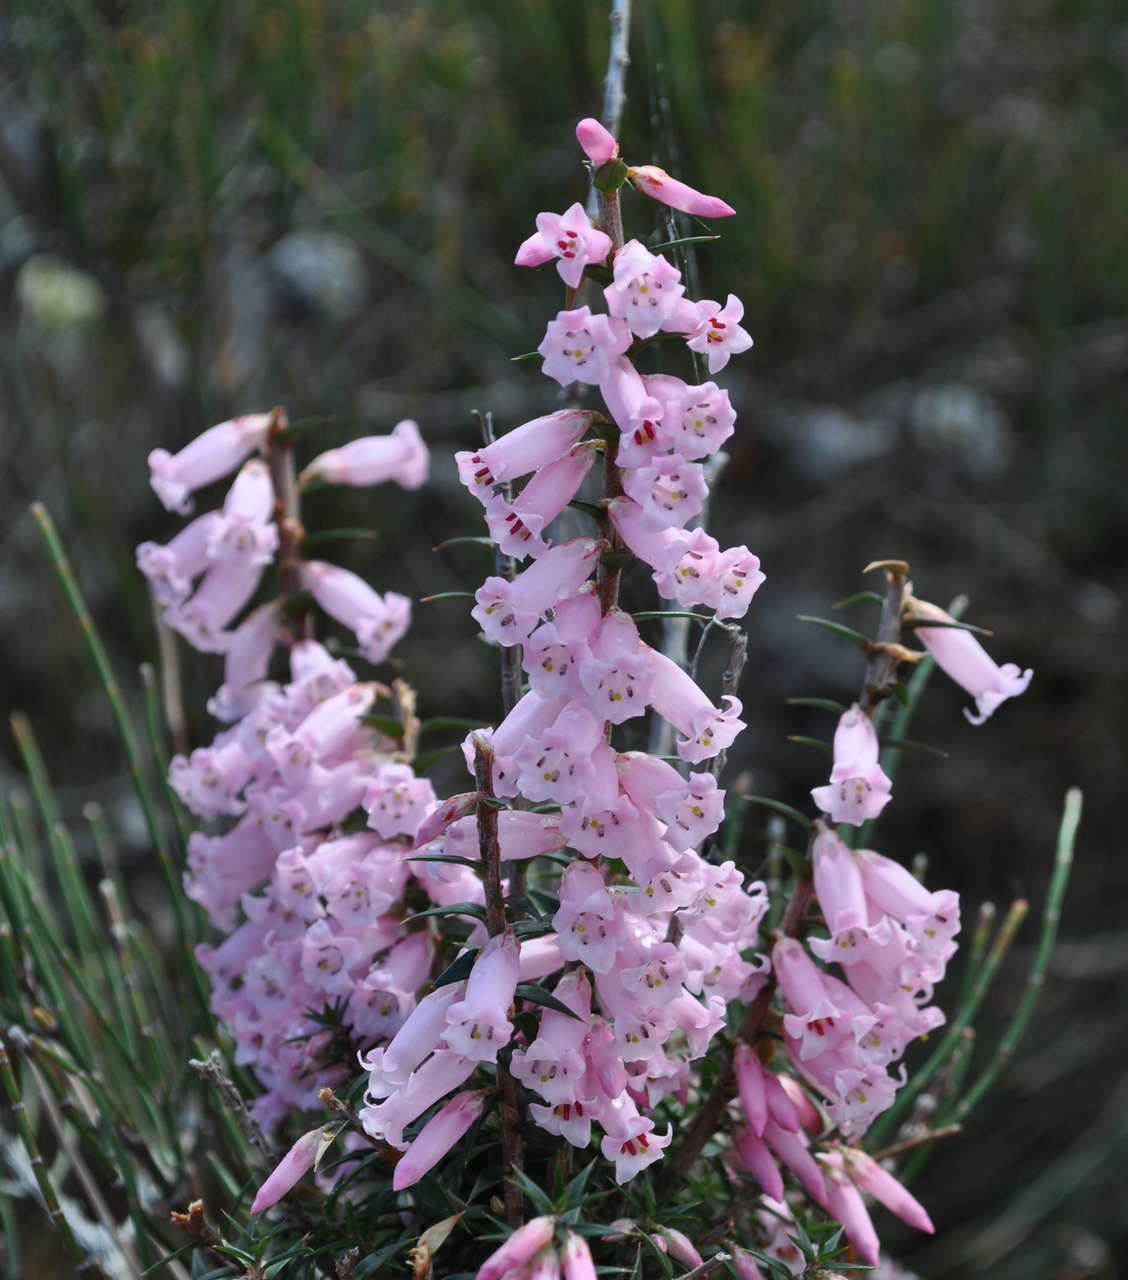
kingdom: Plantae
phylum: Tracheophyta
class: Magnoliopsida
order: Ericales
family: Ericaceae
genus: Epacris
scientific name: Epacris impressa
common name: Common-heath
